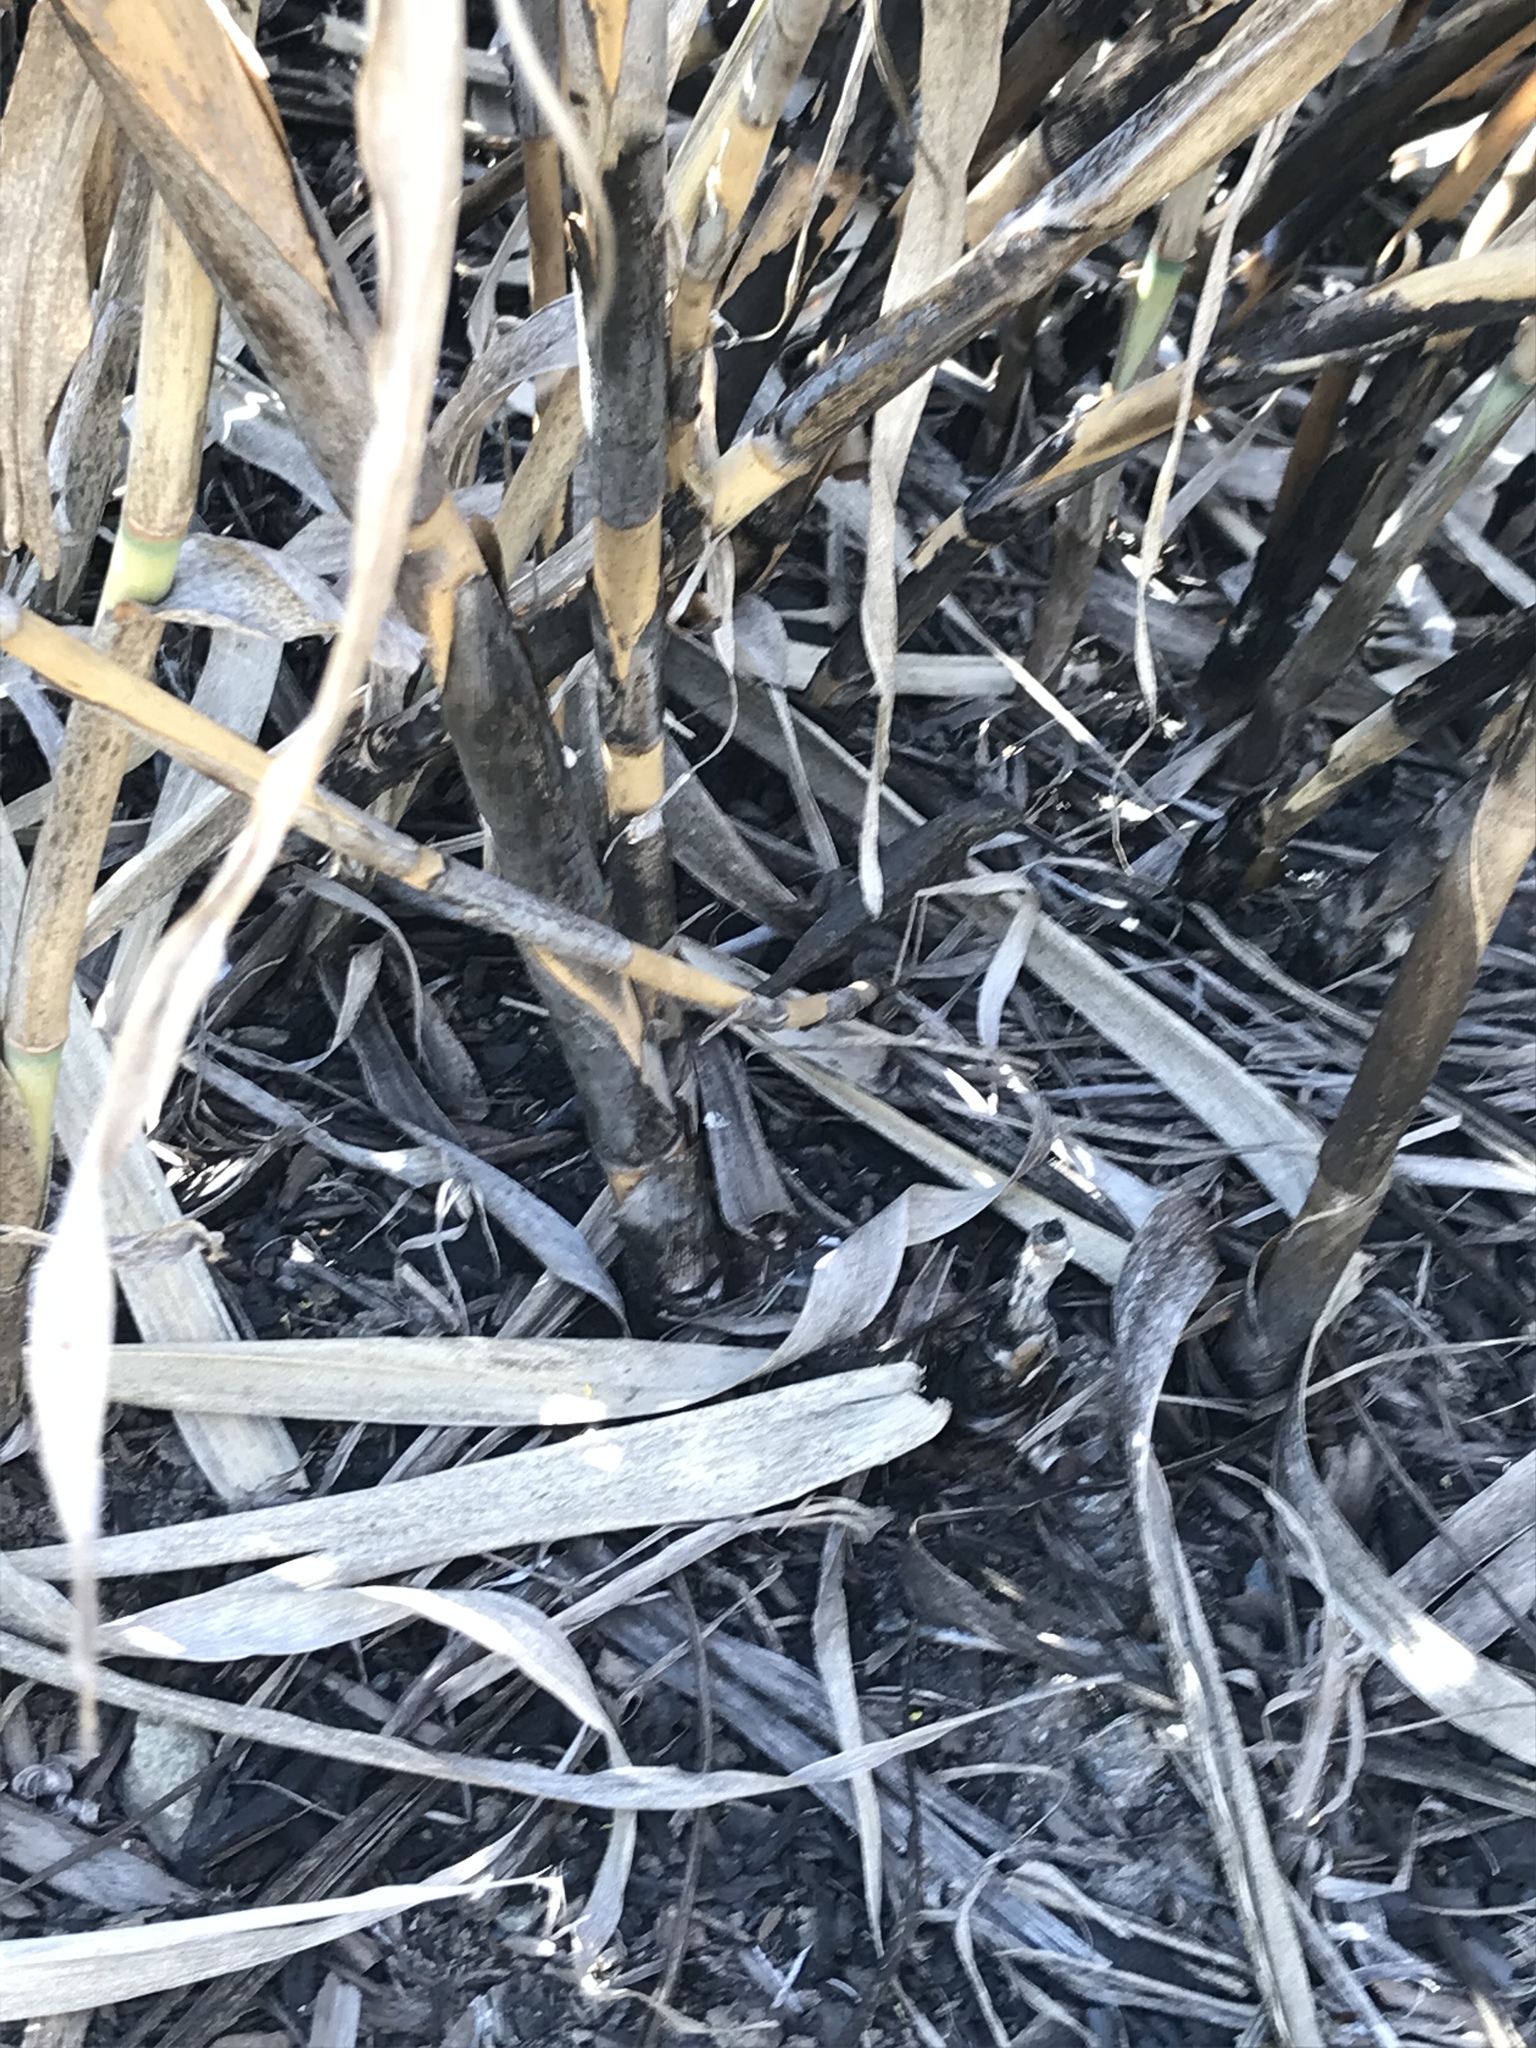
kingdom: Animalia
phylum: Chordata
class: Squamata
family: Phrynosomatidae
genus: Sceloporus
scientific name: Sceloporus occidentalis
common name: Western fence lizard
